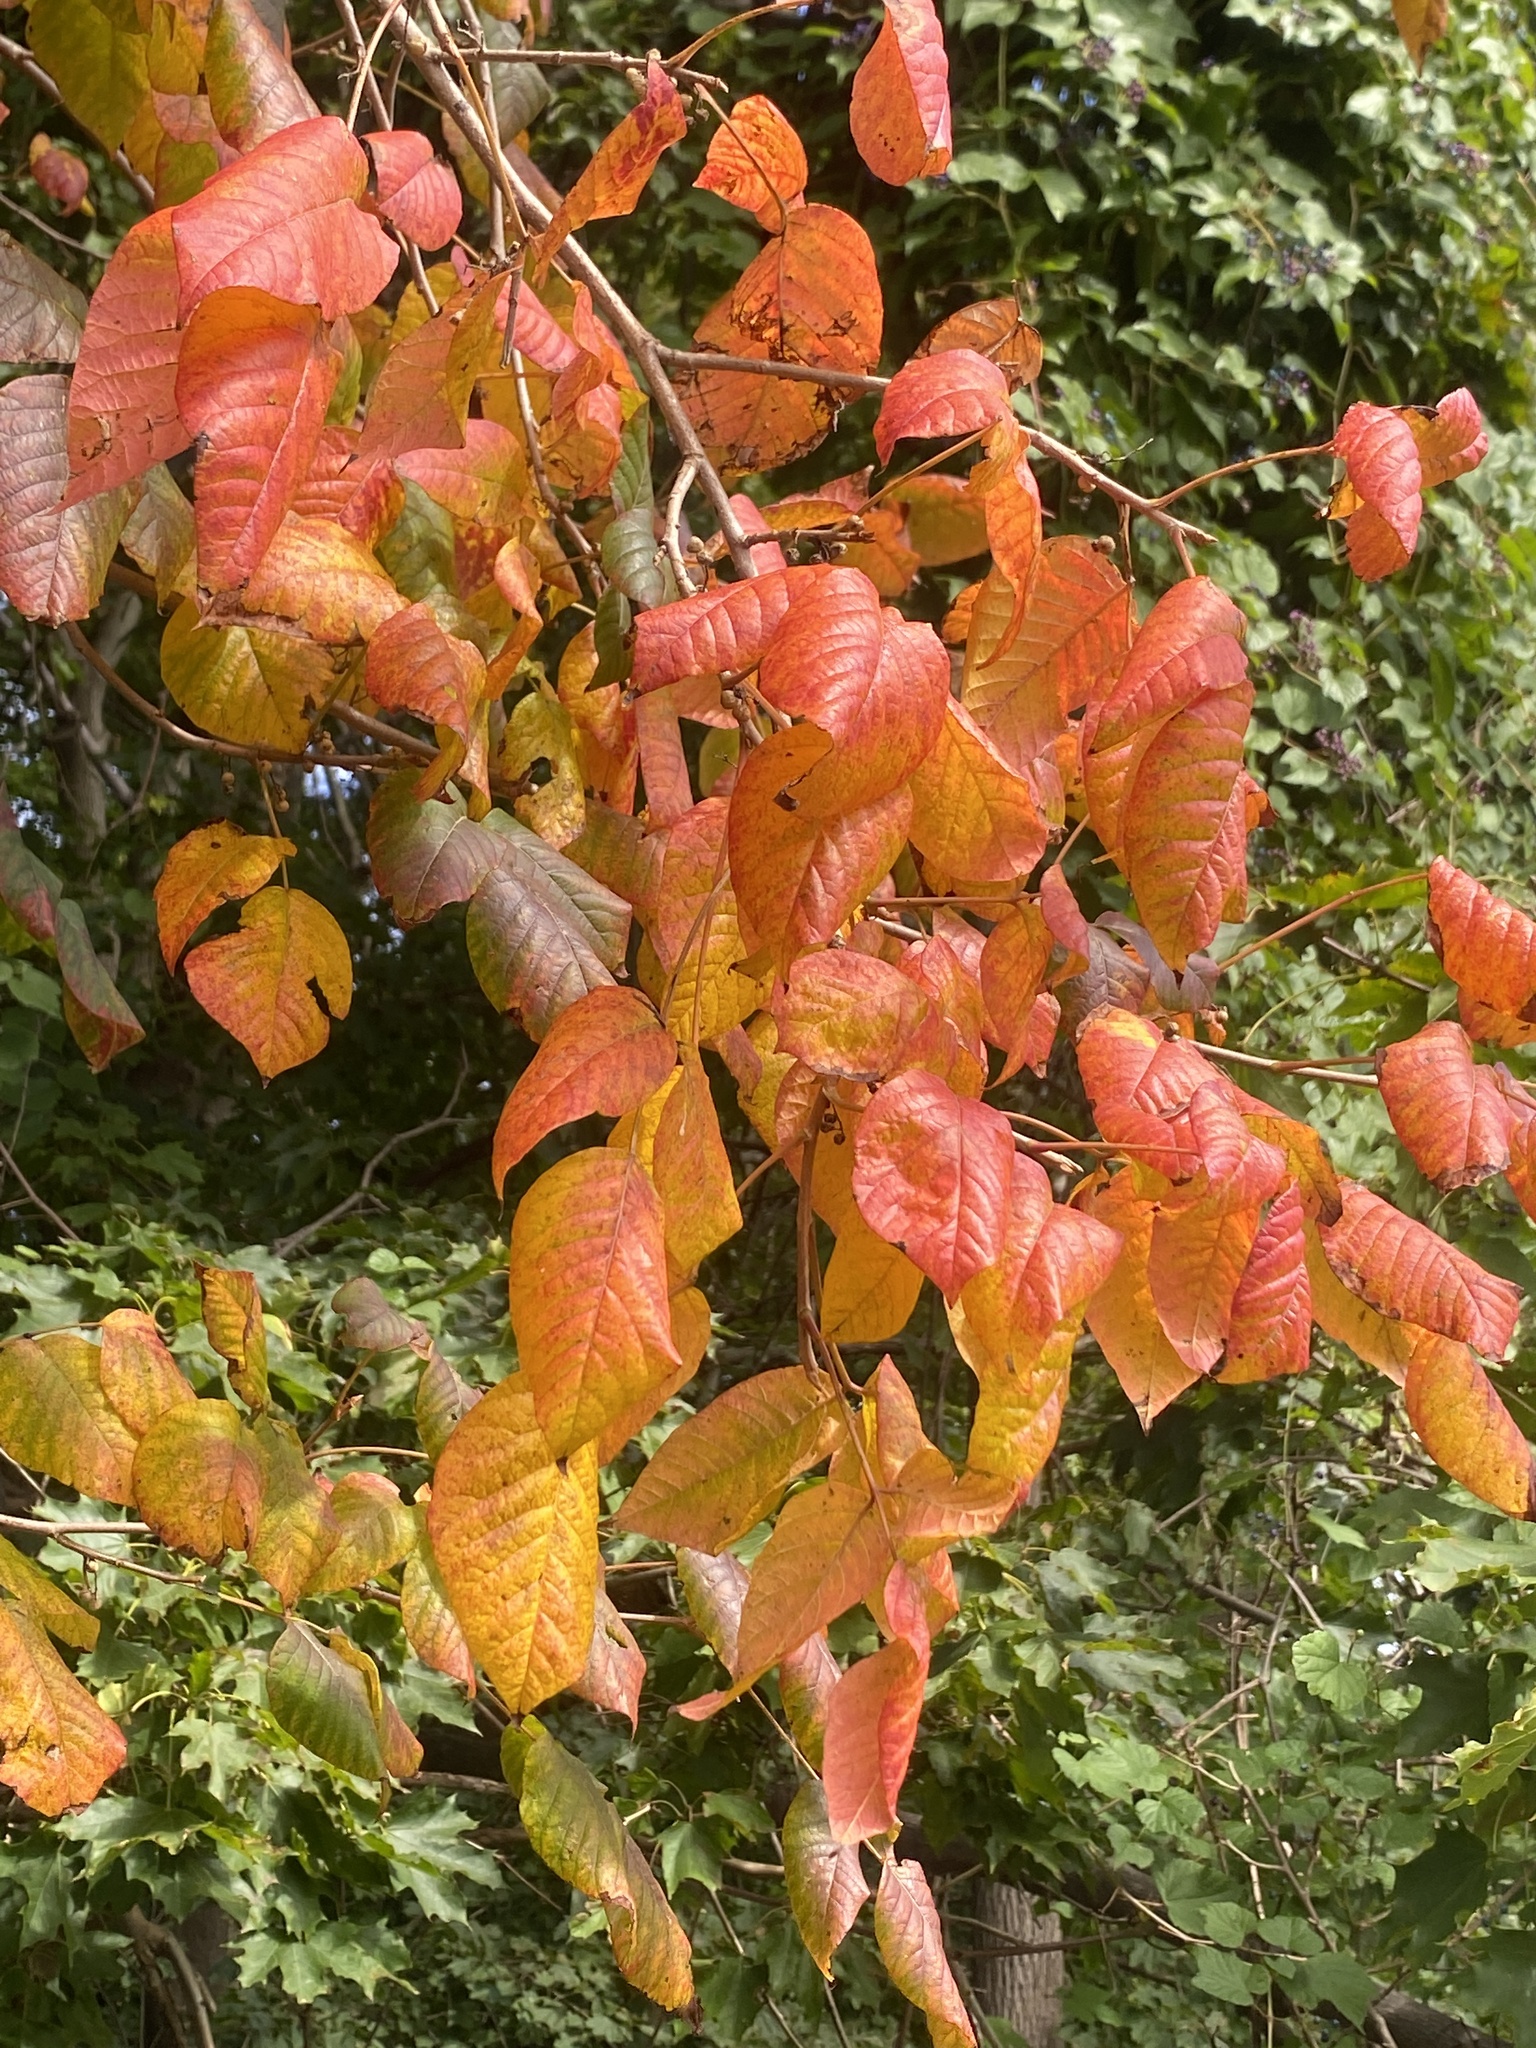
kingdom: Plantae
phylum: Tracheophyta
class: Magnoliopsida
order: Sapindales
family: Anacardiaceae
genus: Toxicodendron
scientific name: Toxicodendron radicans
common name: Poison ivy
